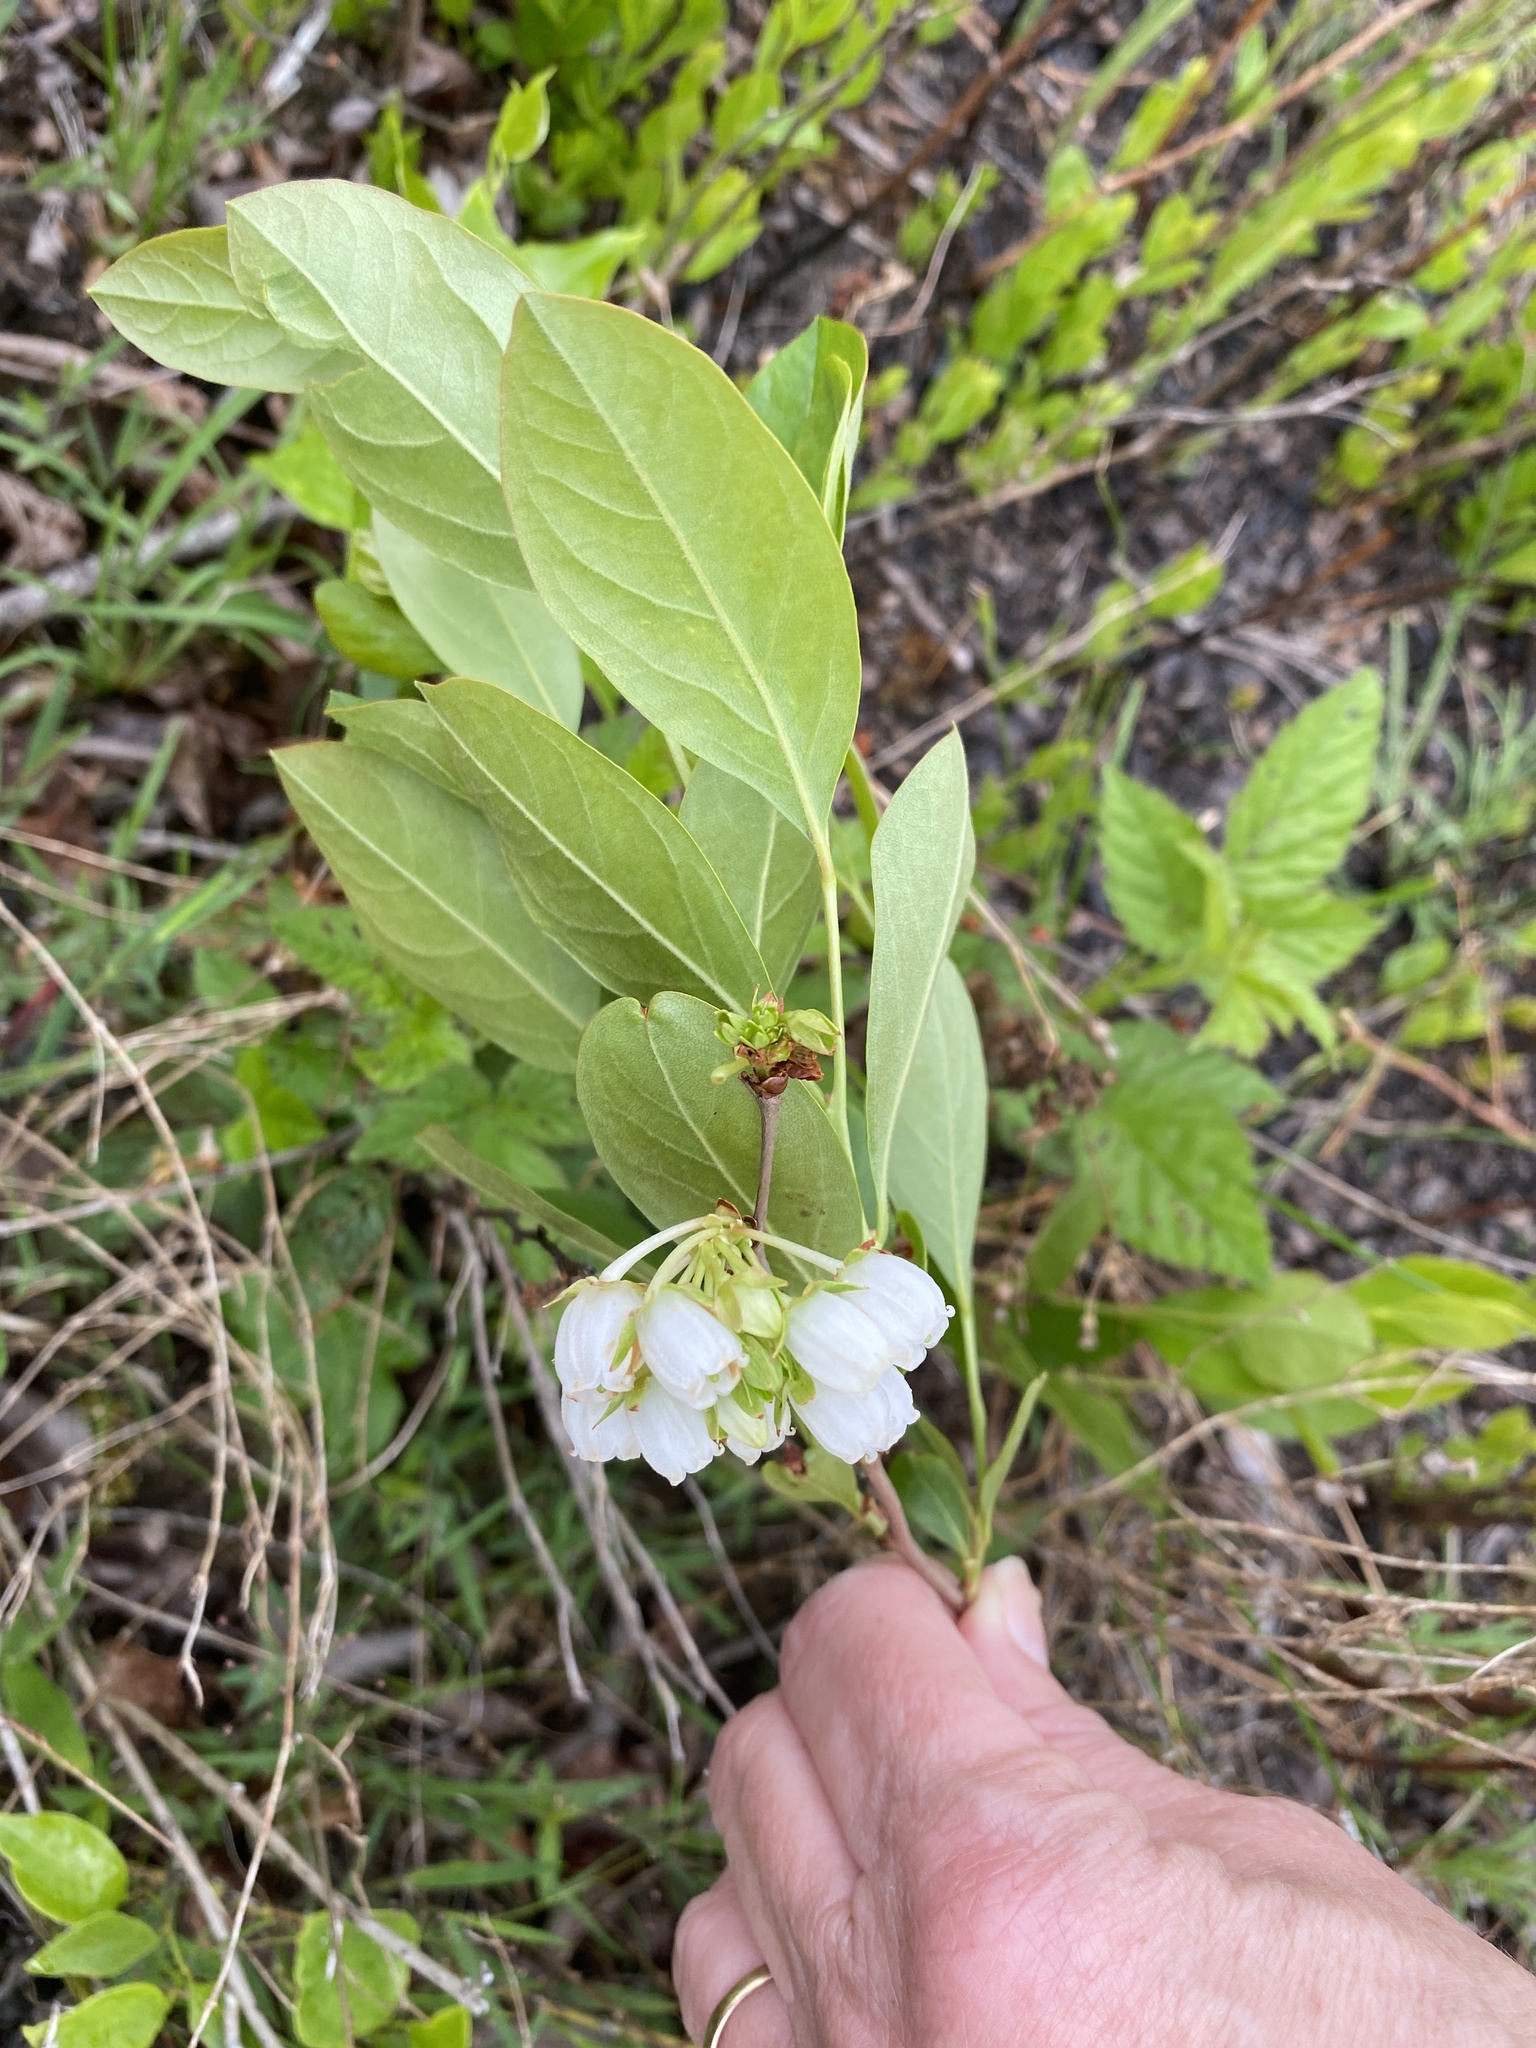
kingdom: Plantae
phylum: Tracheophyta
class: Magnoliopsida
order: Ericales
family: Ericaceae
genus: Lyonia
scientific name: Lyonia mariana
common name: Staggerbush
